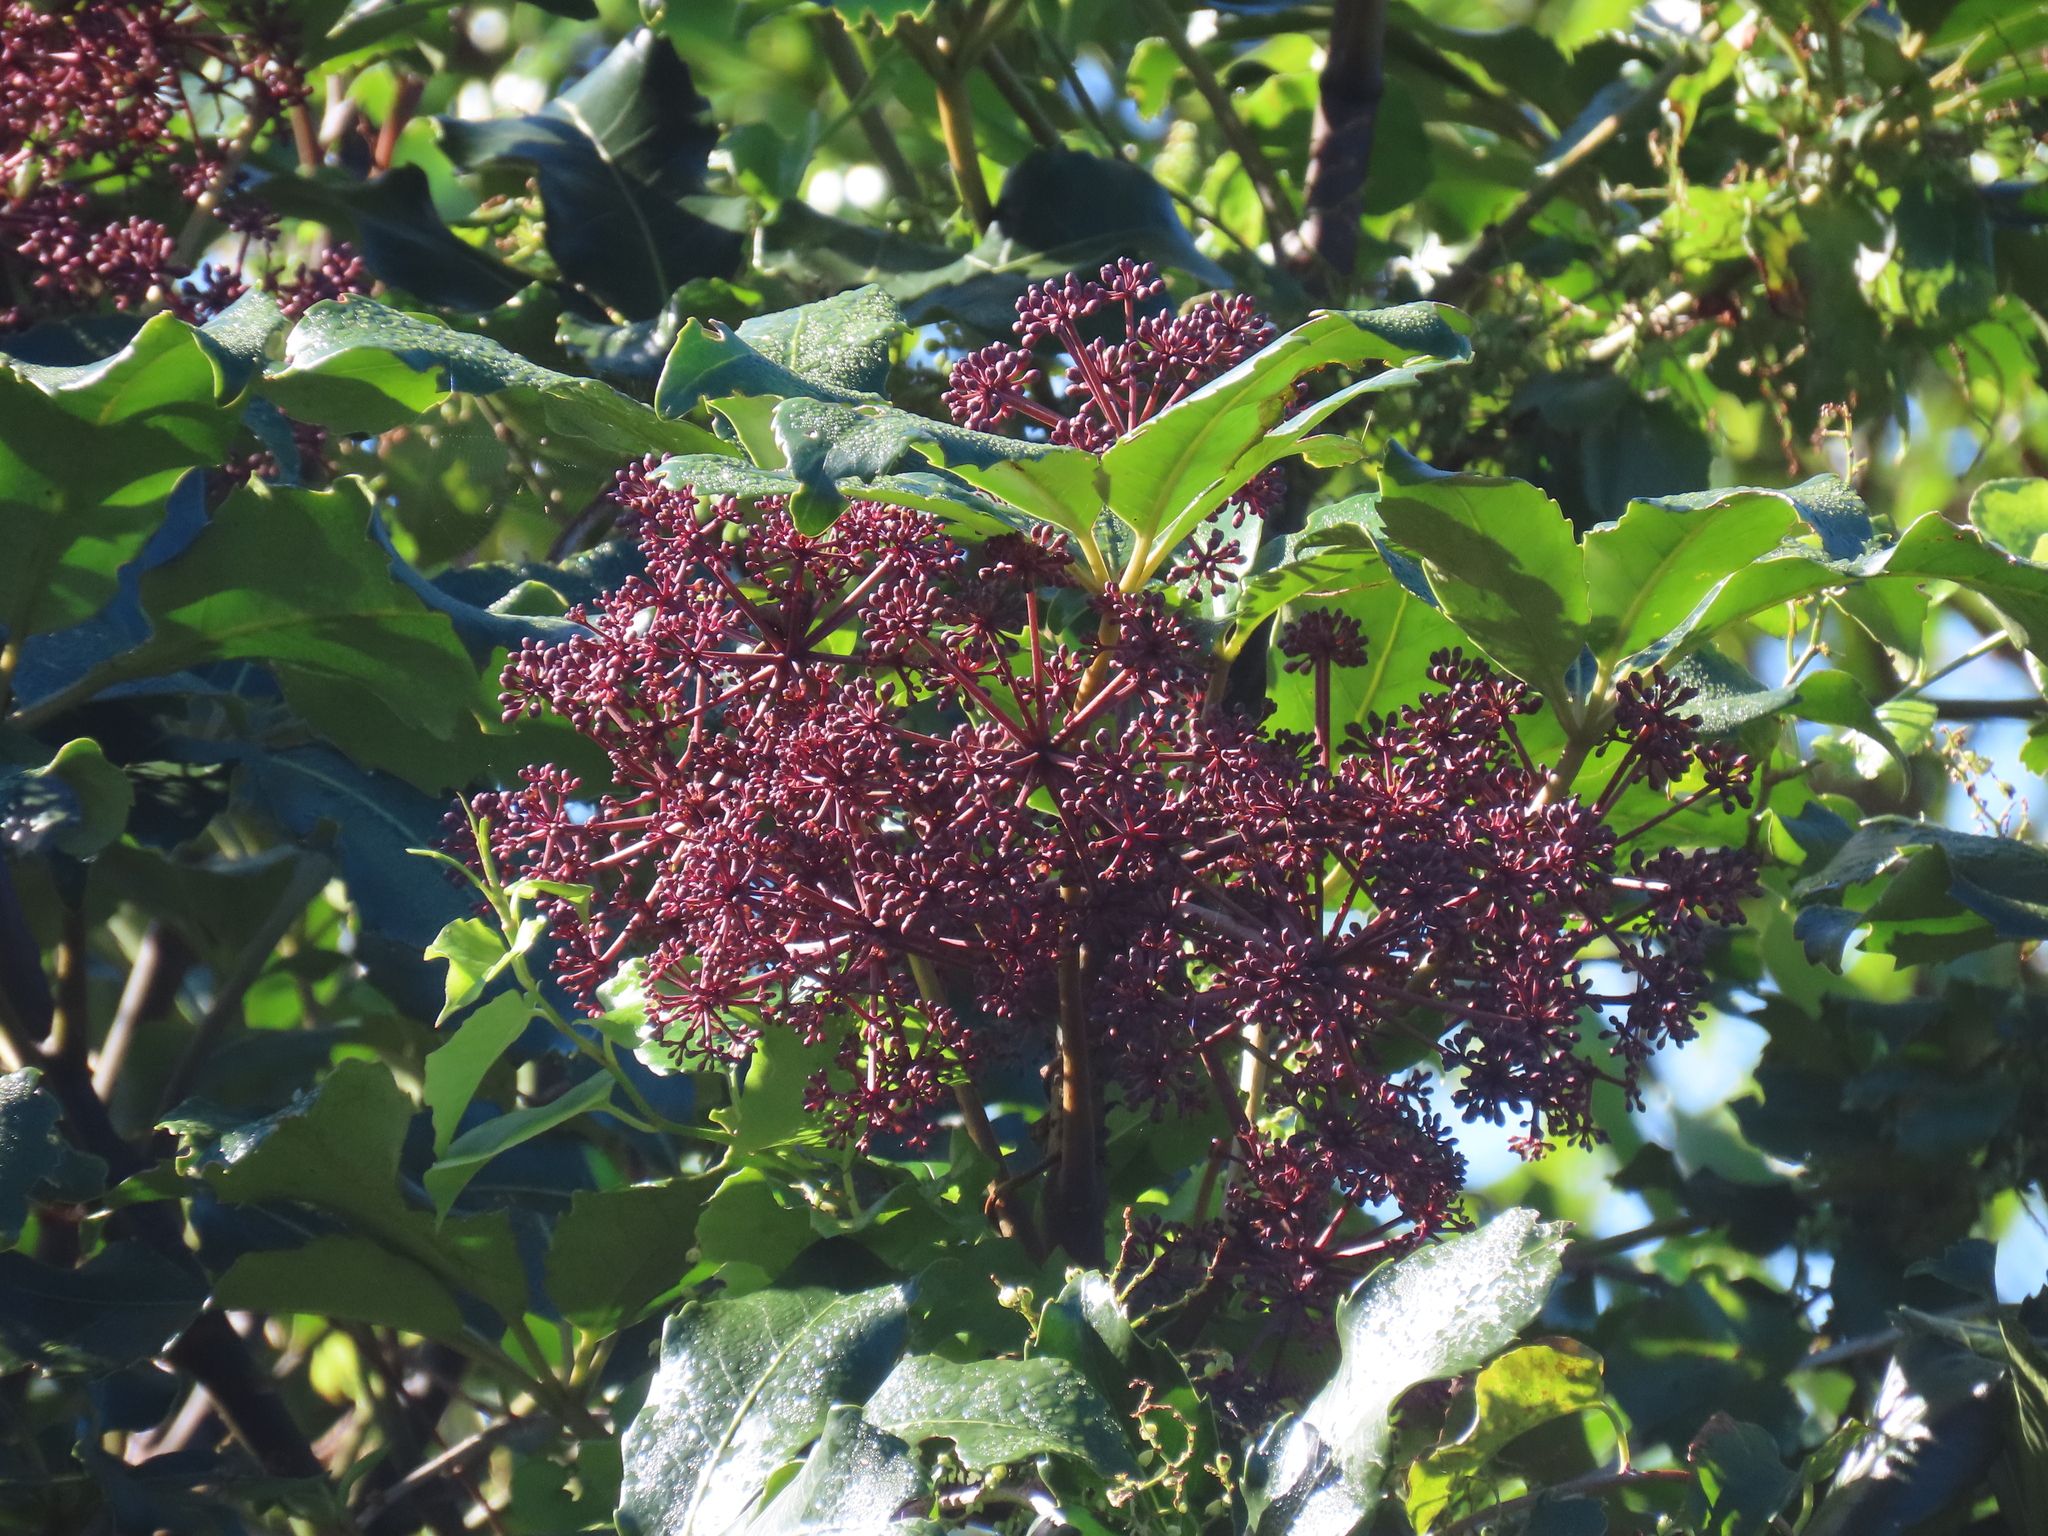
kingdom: Plantae
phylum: Tracheophyta
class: Magnoliopsida
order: Apiales
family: Araliaceae
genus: Neopanax
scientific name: Neopanax arboreus
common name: Five-fingers
